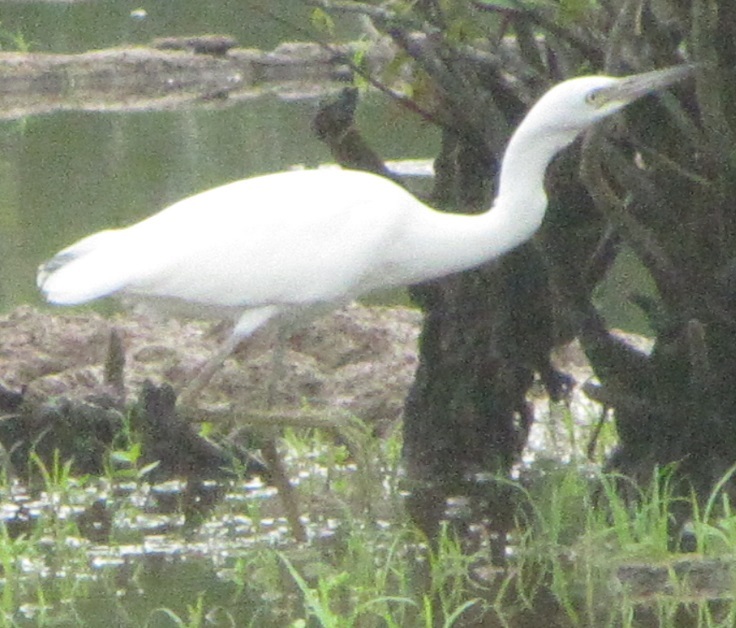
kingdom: Animalia
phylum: Chordata
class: Aves
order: Pelecaniformes
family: Ardeidae
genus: Egretta
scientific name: Egretta caerulea
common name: Little blue heron
